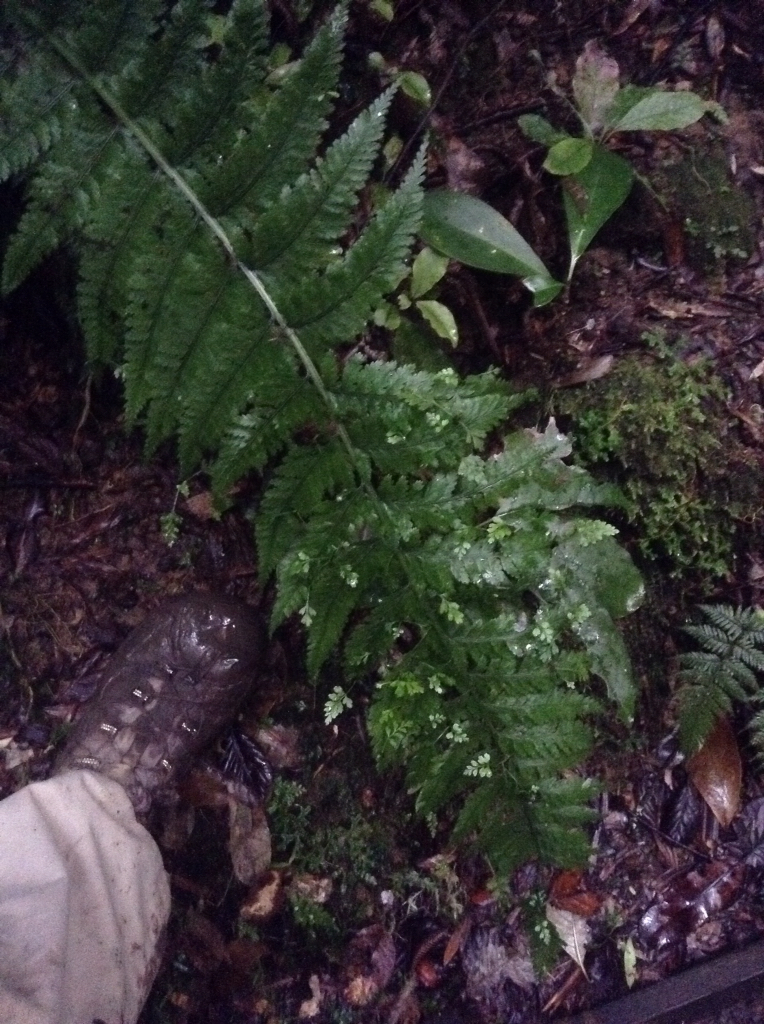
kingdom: Plantae
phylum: Tracheophyta
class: Polypodiopsida
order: Polypodiales
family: Aspleniaceae
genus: Asplenium
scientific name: Asplenium bulbiferum
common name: Mother fern
